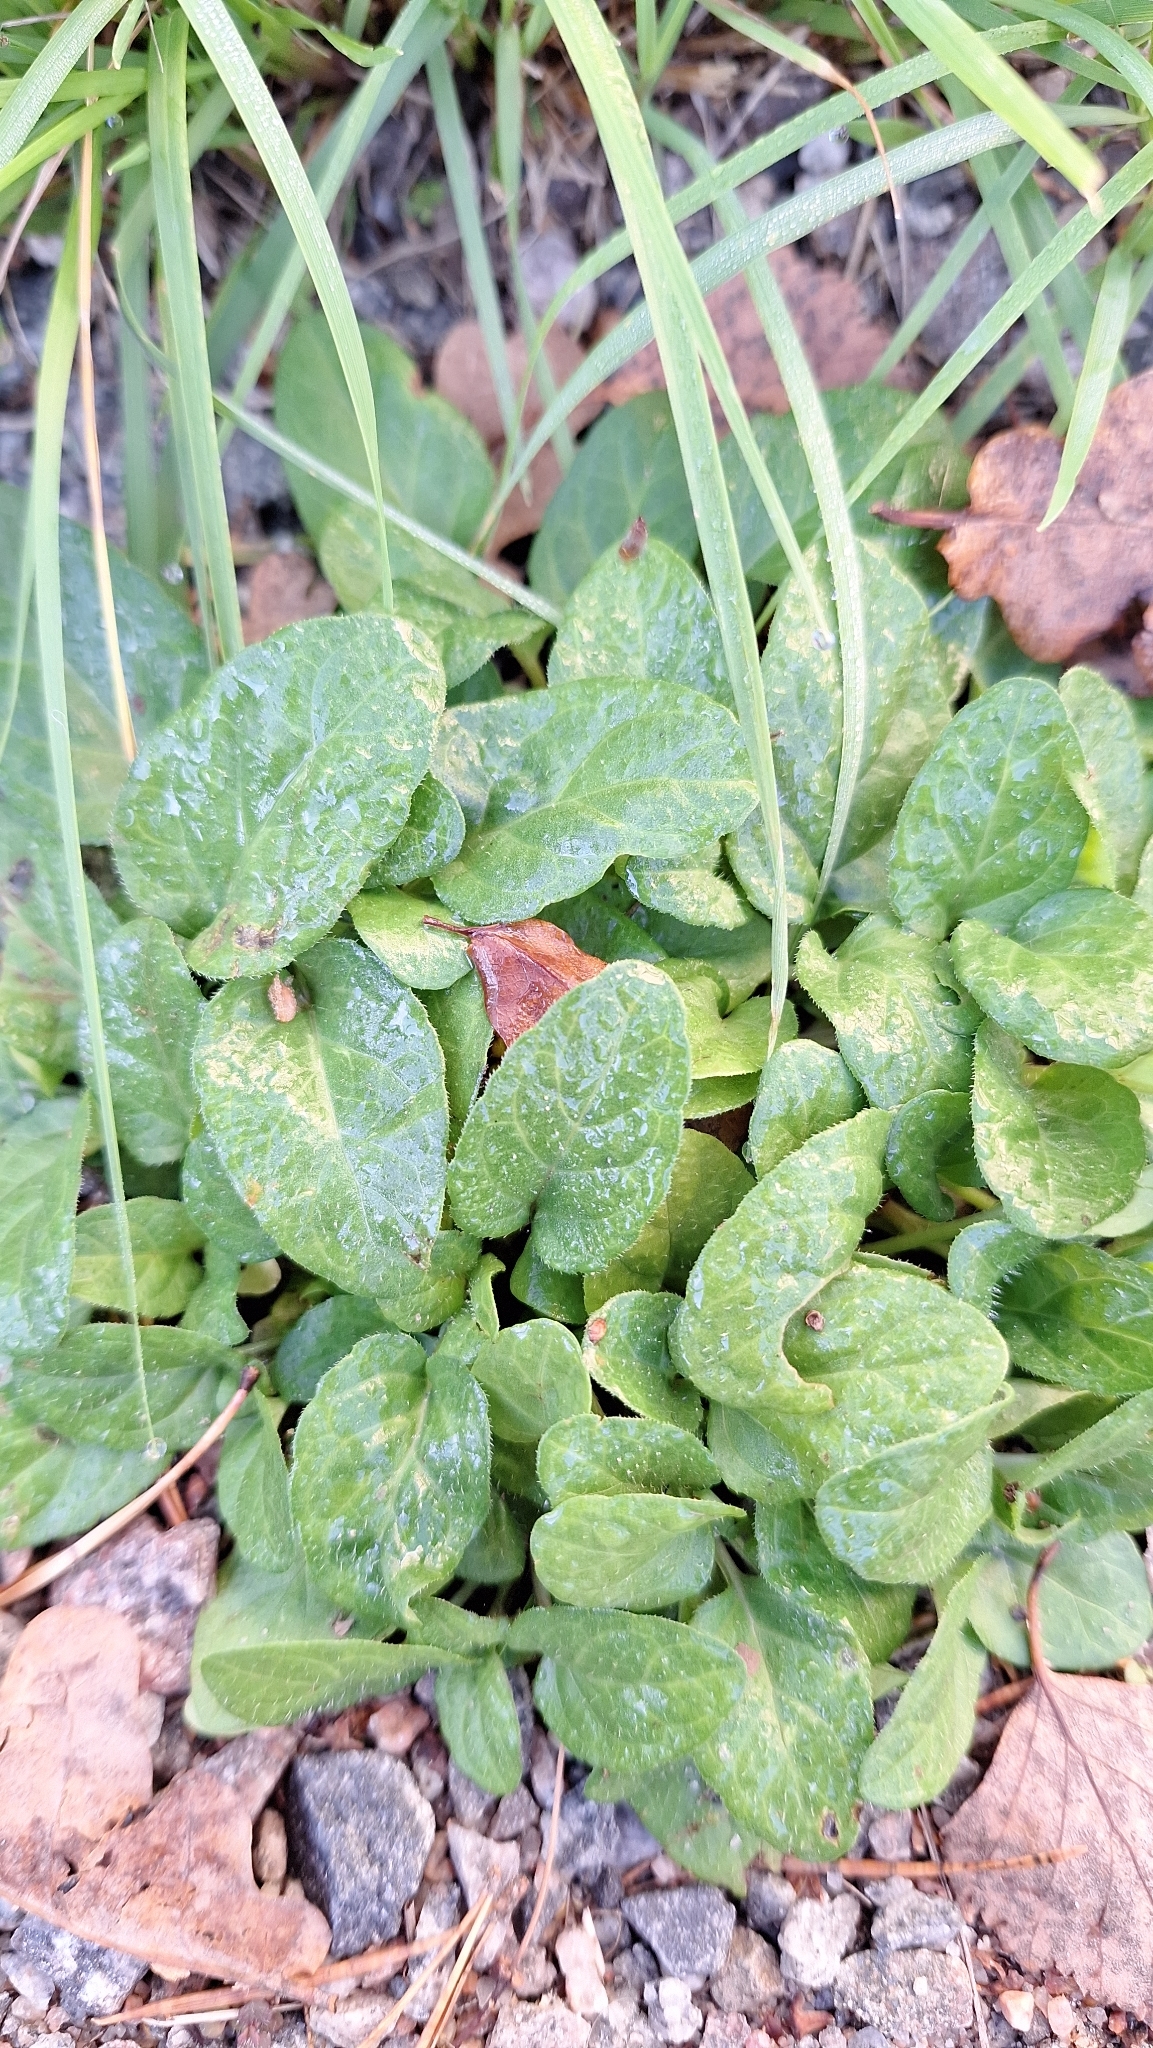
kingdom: Plantae
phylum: Tracheophyta
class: Magnoliopsida
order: Lamiales
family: Lamiaceae
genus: Prunella
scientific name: Prunella vulgaris
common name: Heal-all
